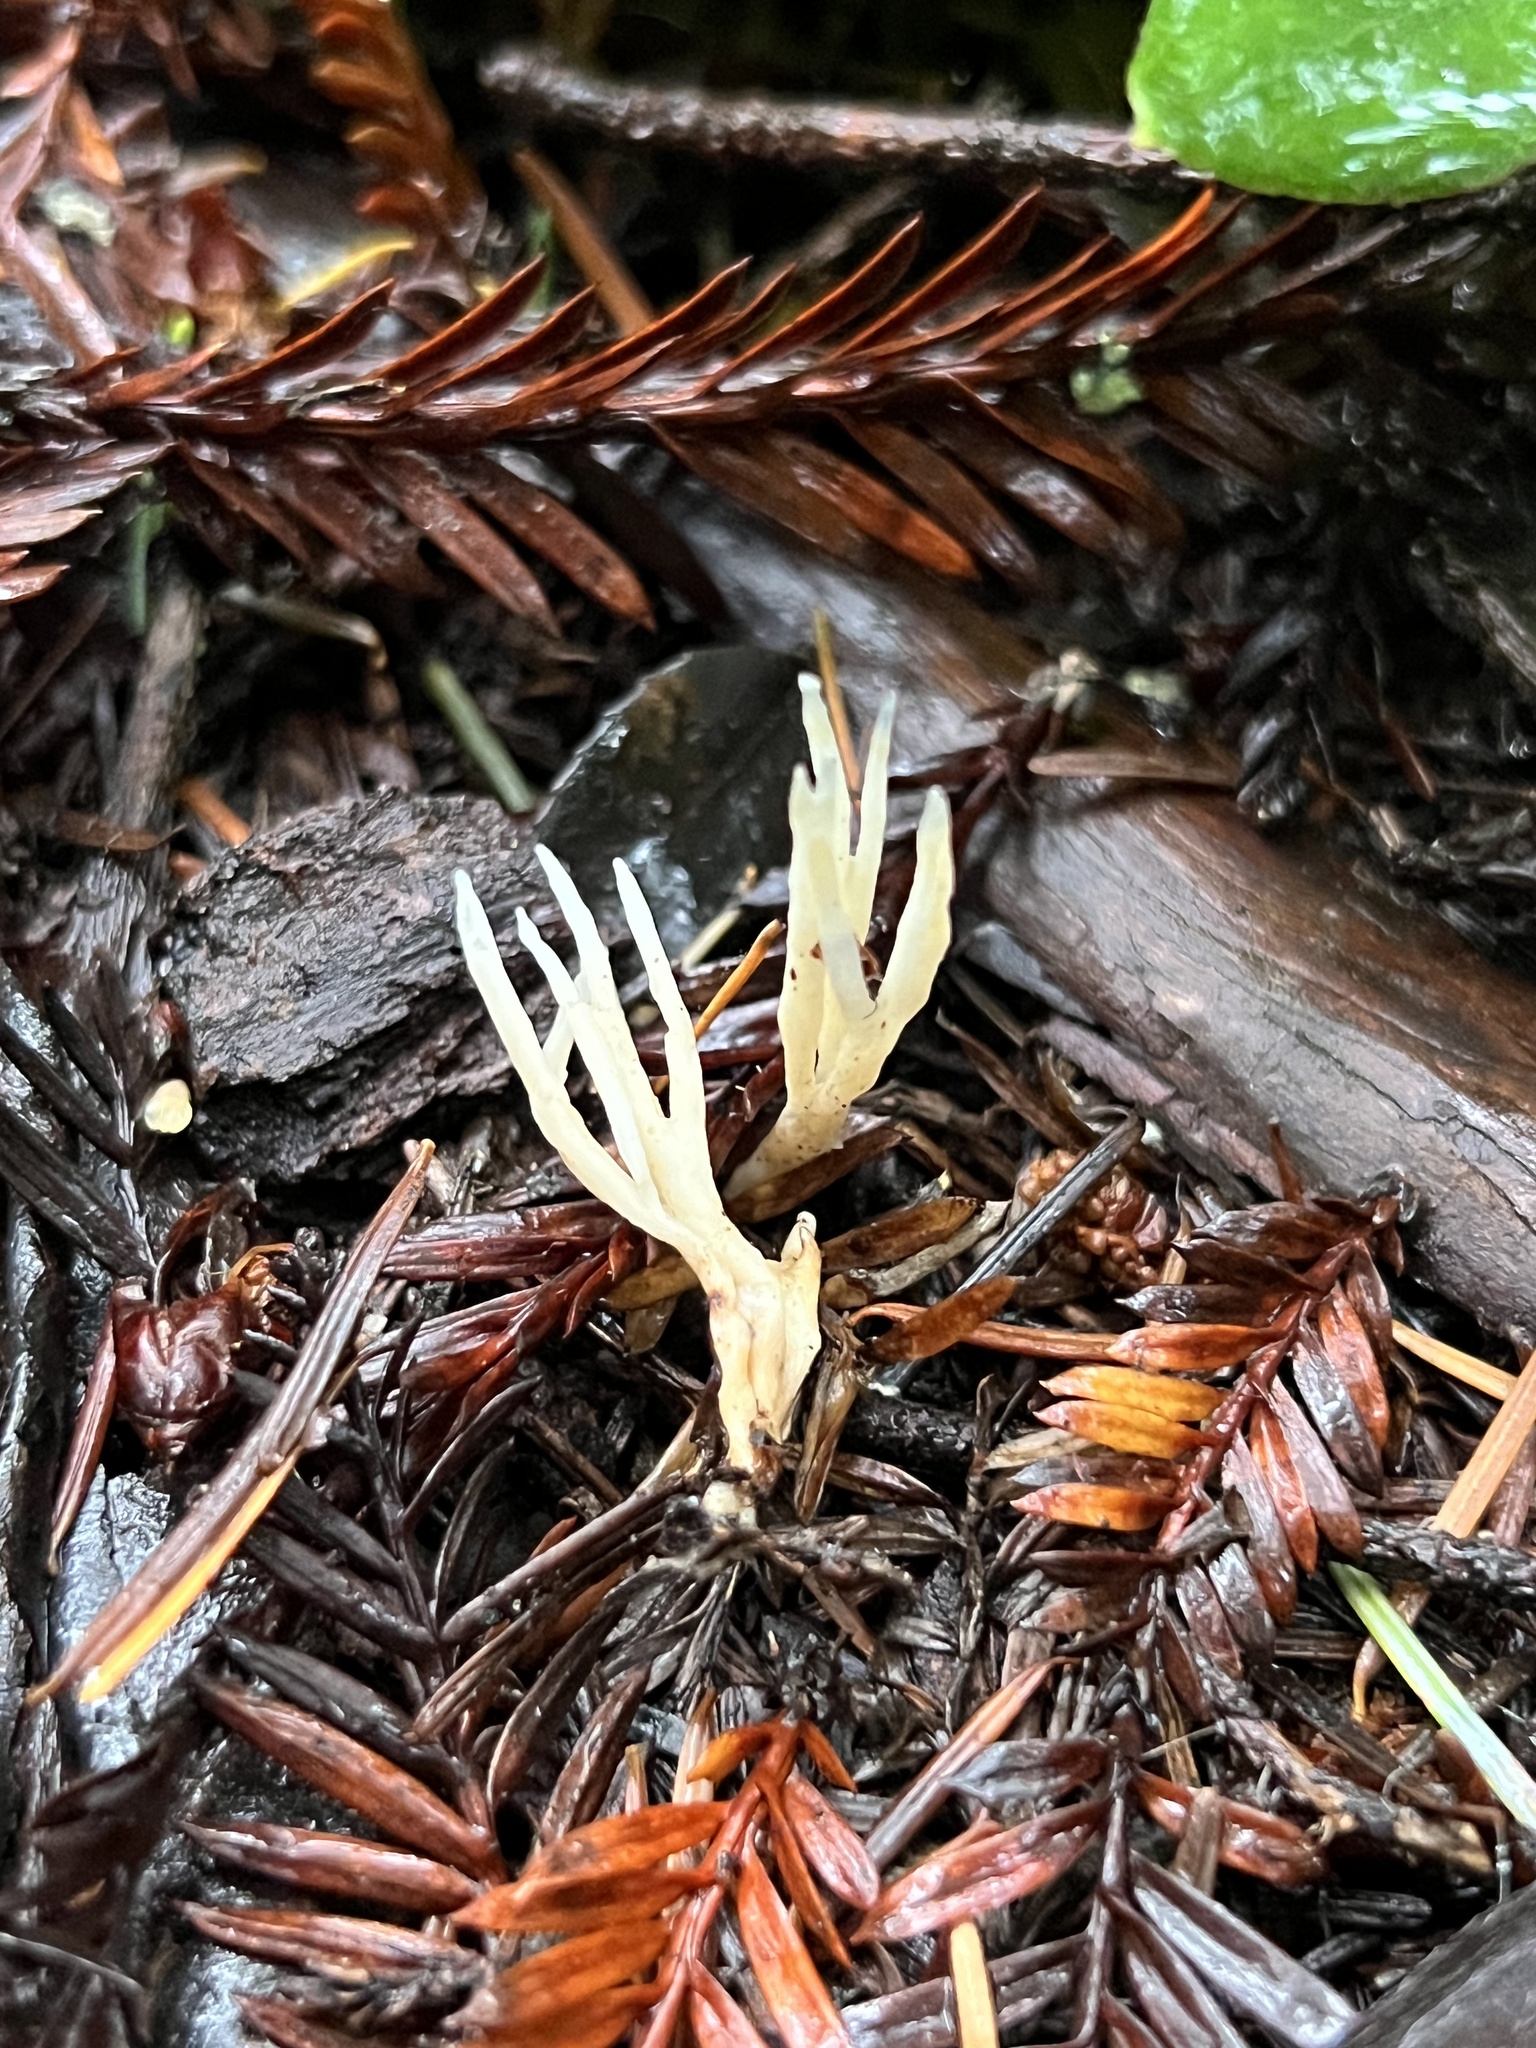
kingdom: Fungi
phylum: Basidiomycota
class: Agaricomycetes
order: Tremellodendropsidales
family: Tremellodendropsidaceae
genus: Tremellodendropsis
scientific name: Tremellodendropsis tuberosa
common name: Ashen coral
